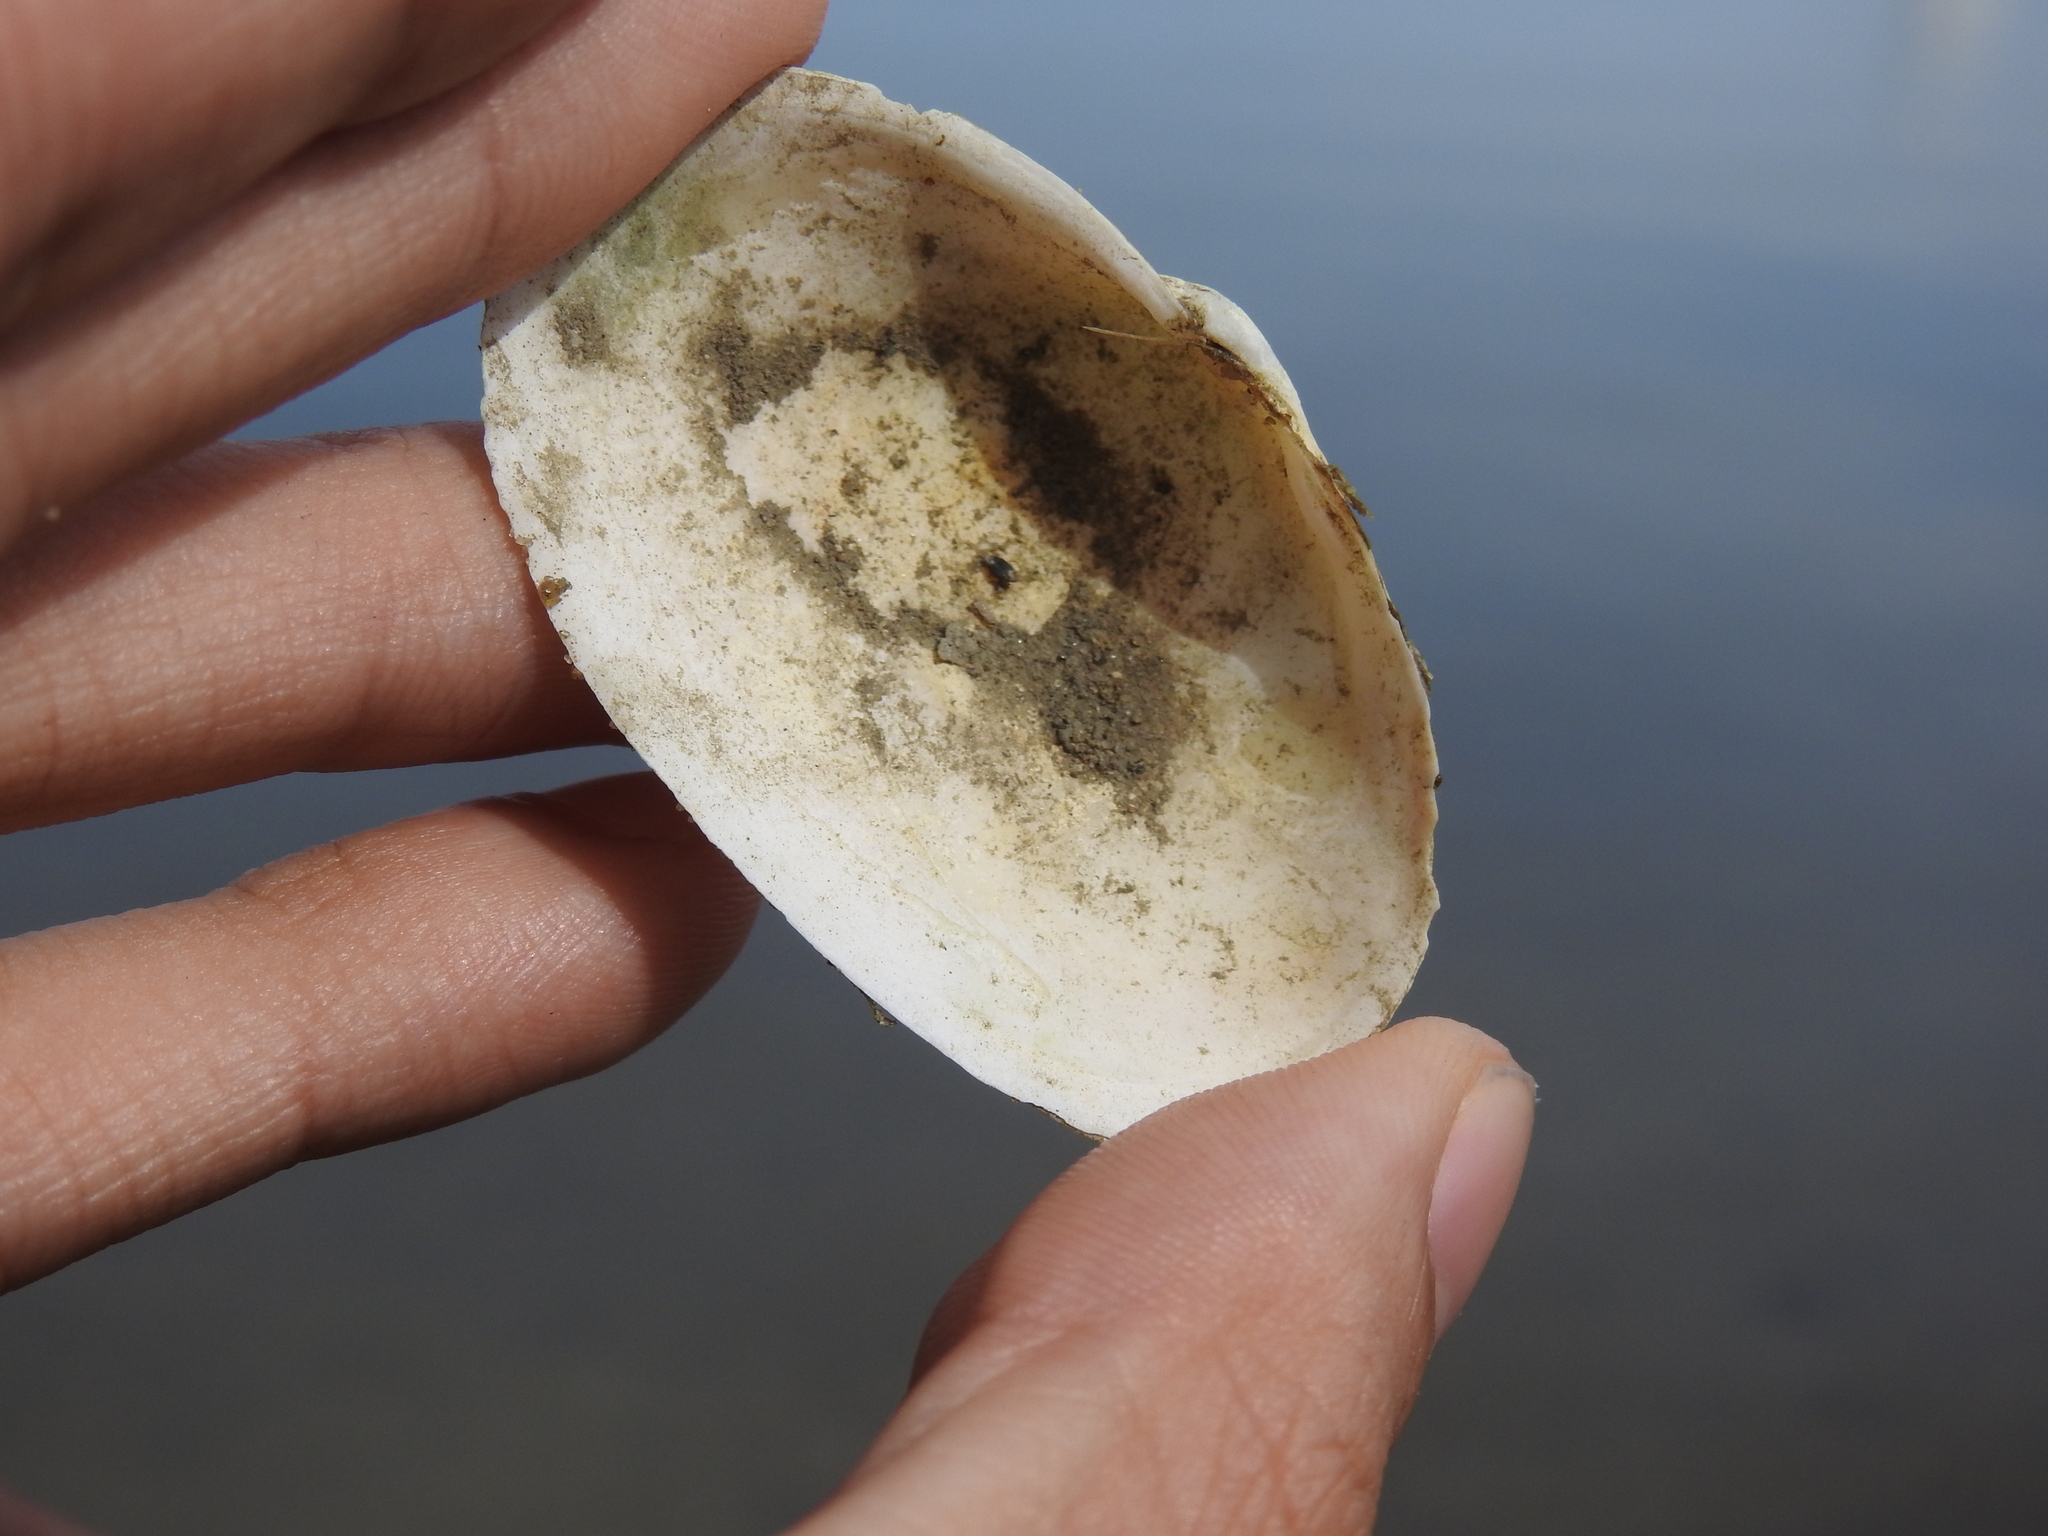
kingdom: Animalia
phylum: Mollusca
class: Bivalvia
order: Myida
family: Myidae
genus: Mya
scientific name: Mya arenaria
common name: Soft-shelled clam
